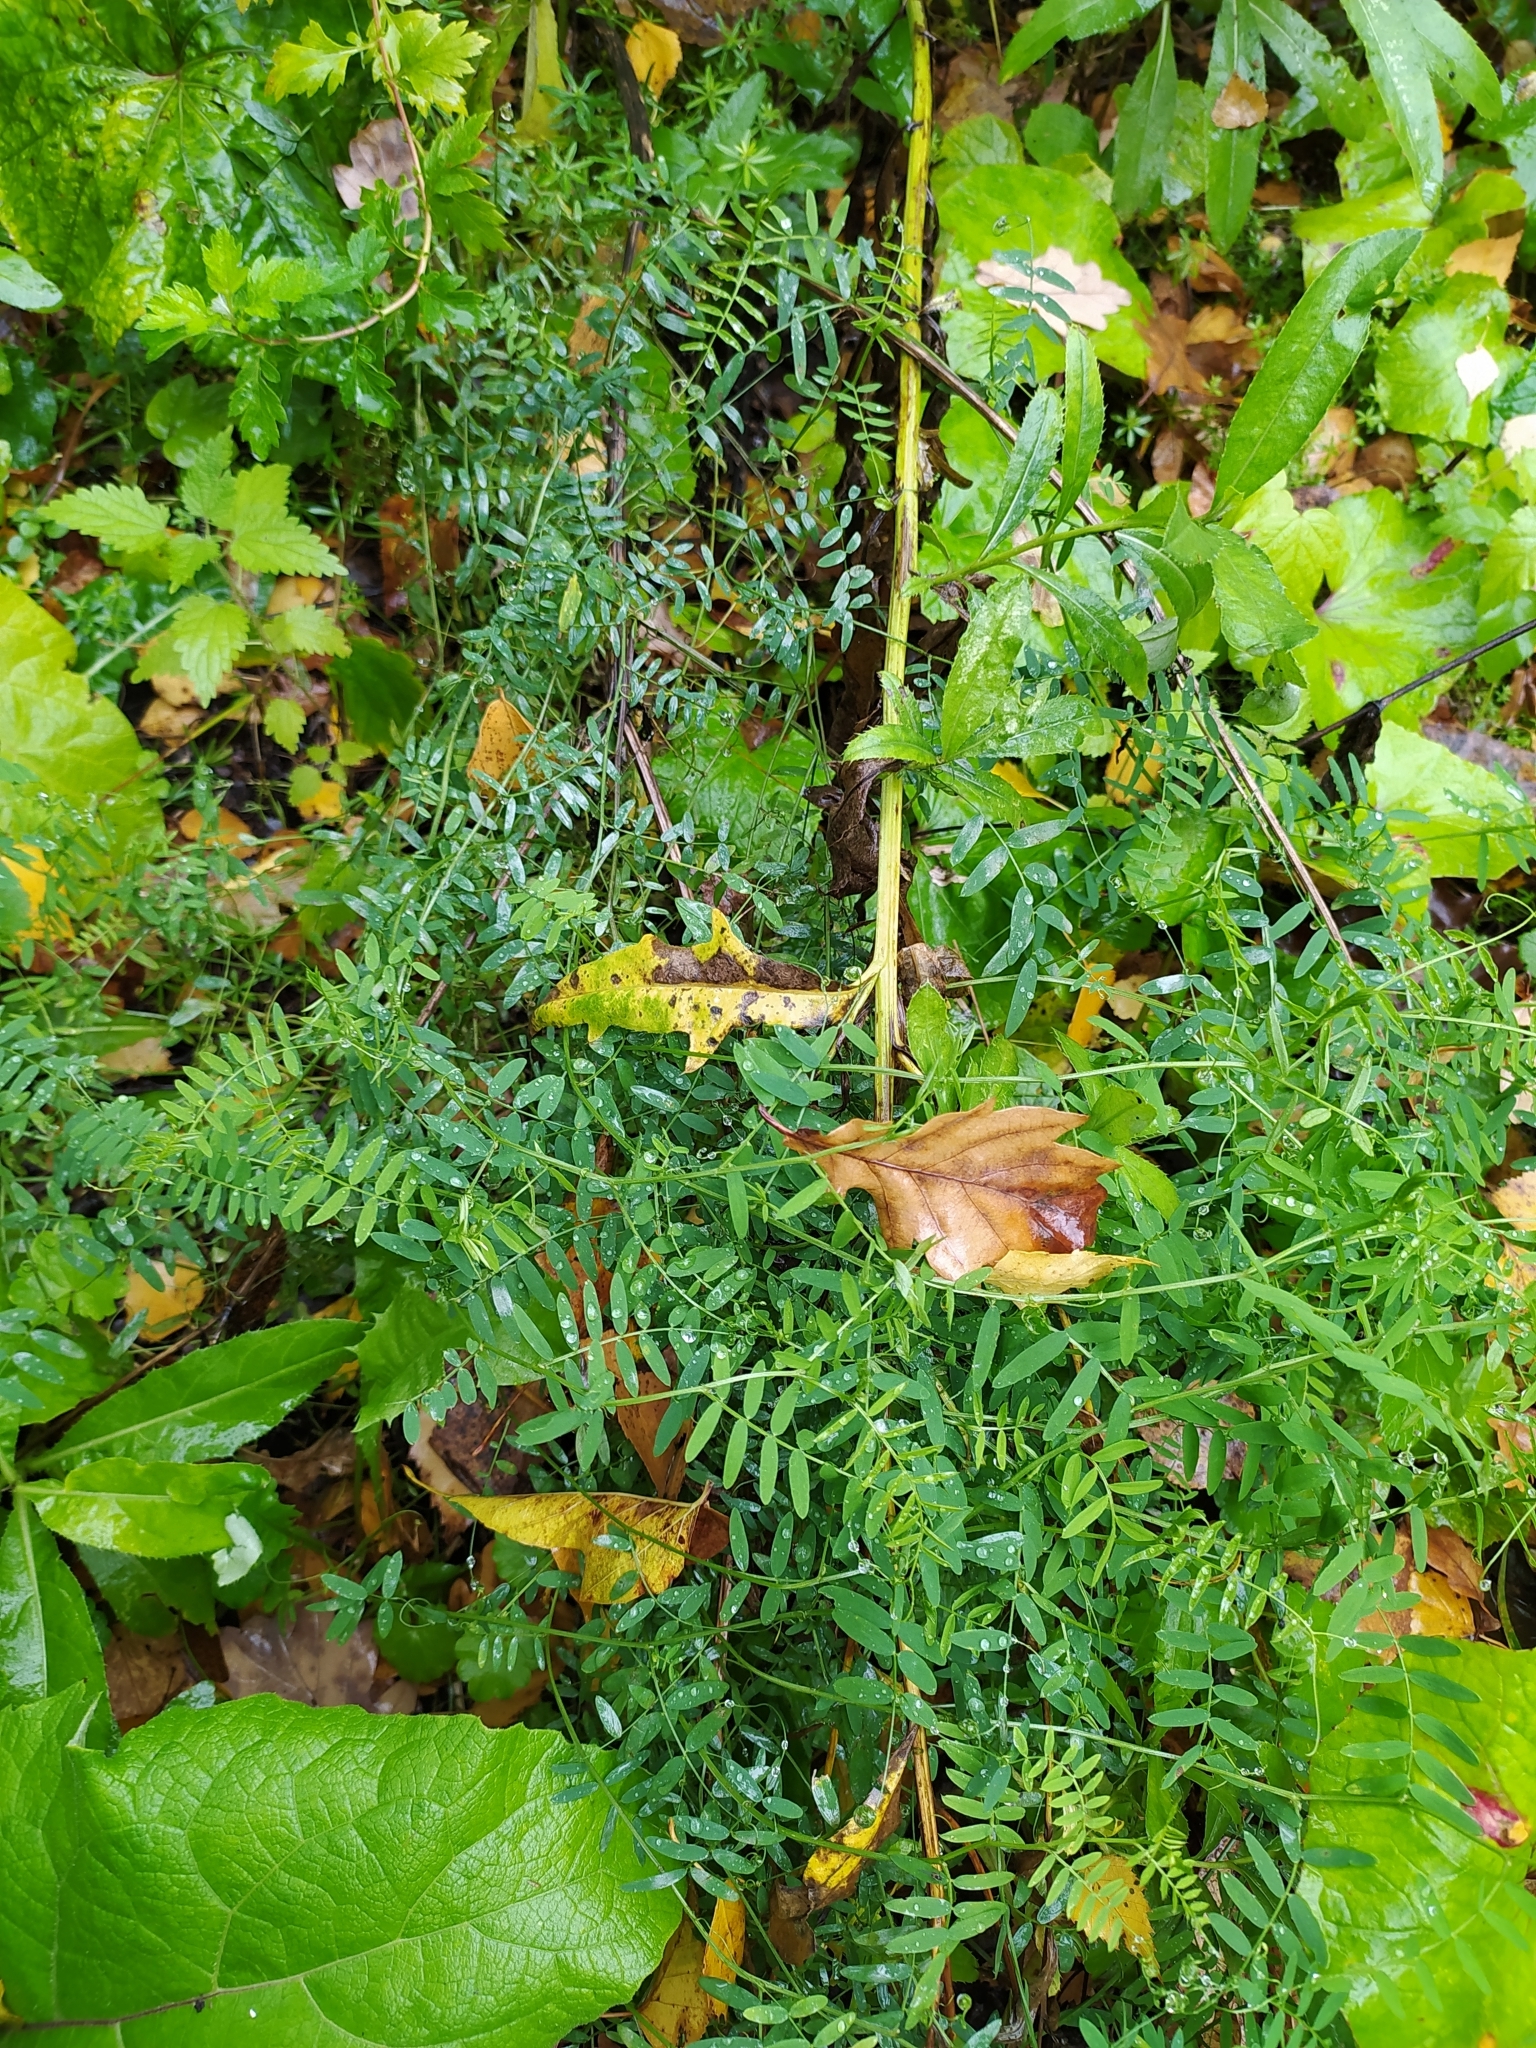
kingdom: Plantae
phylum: Tracheophyta
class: Magnoliopsida
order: Fabales
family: Fabaceae
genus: Vicia
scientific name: Vicia cracca
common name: Bird vetch
